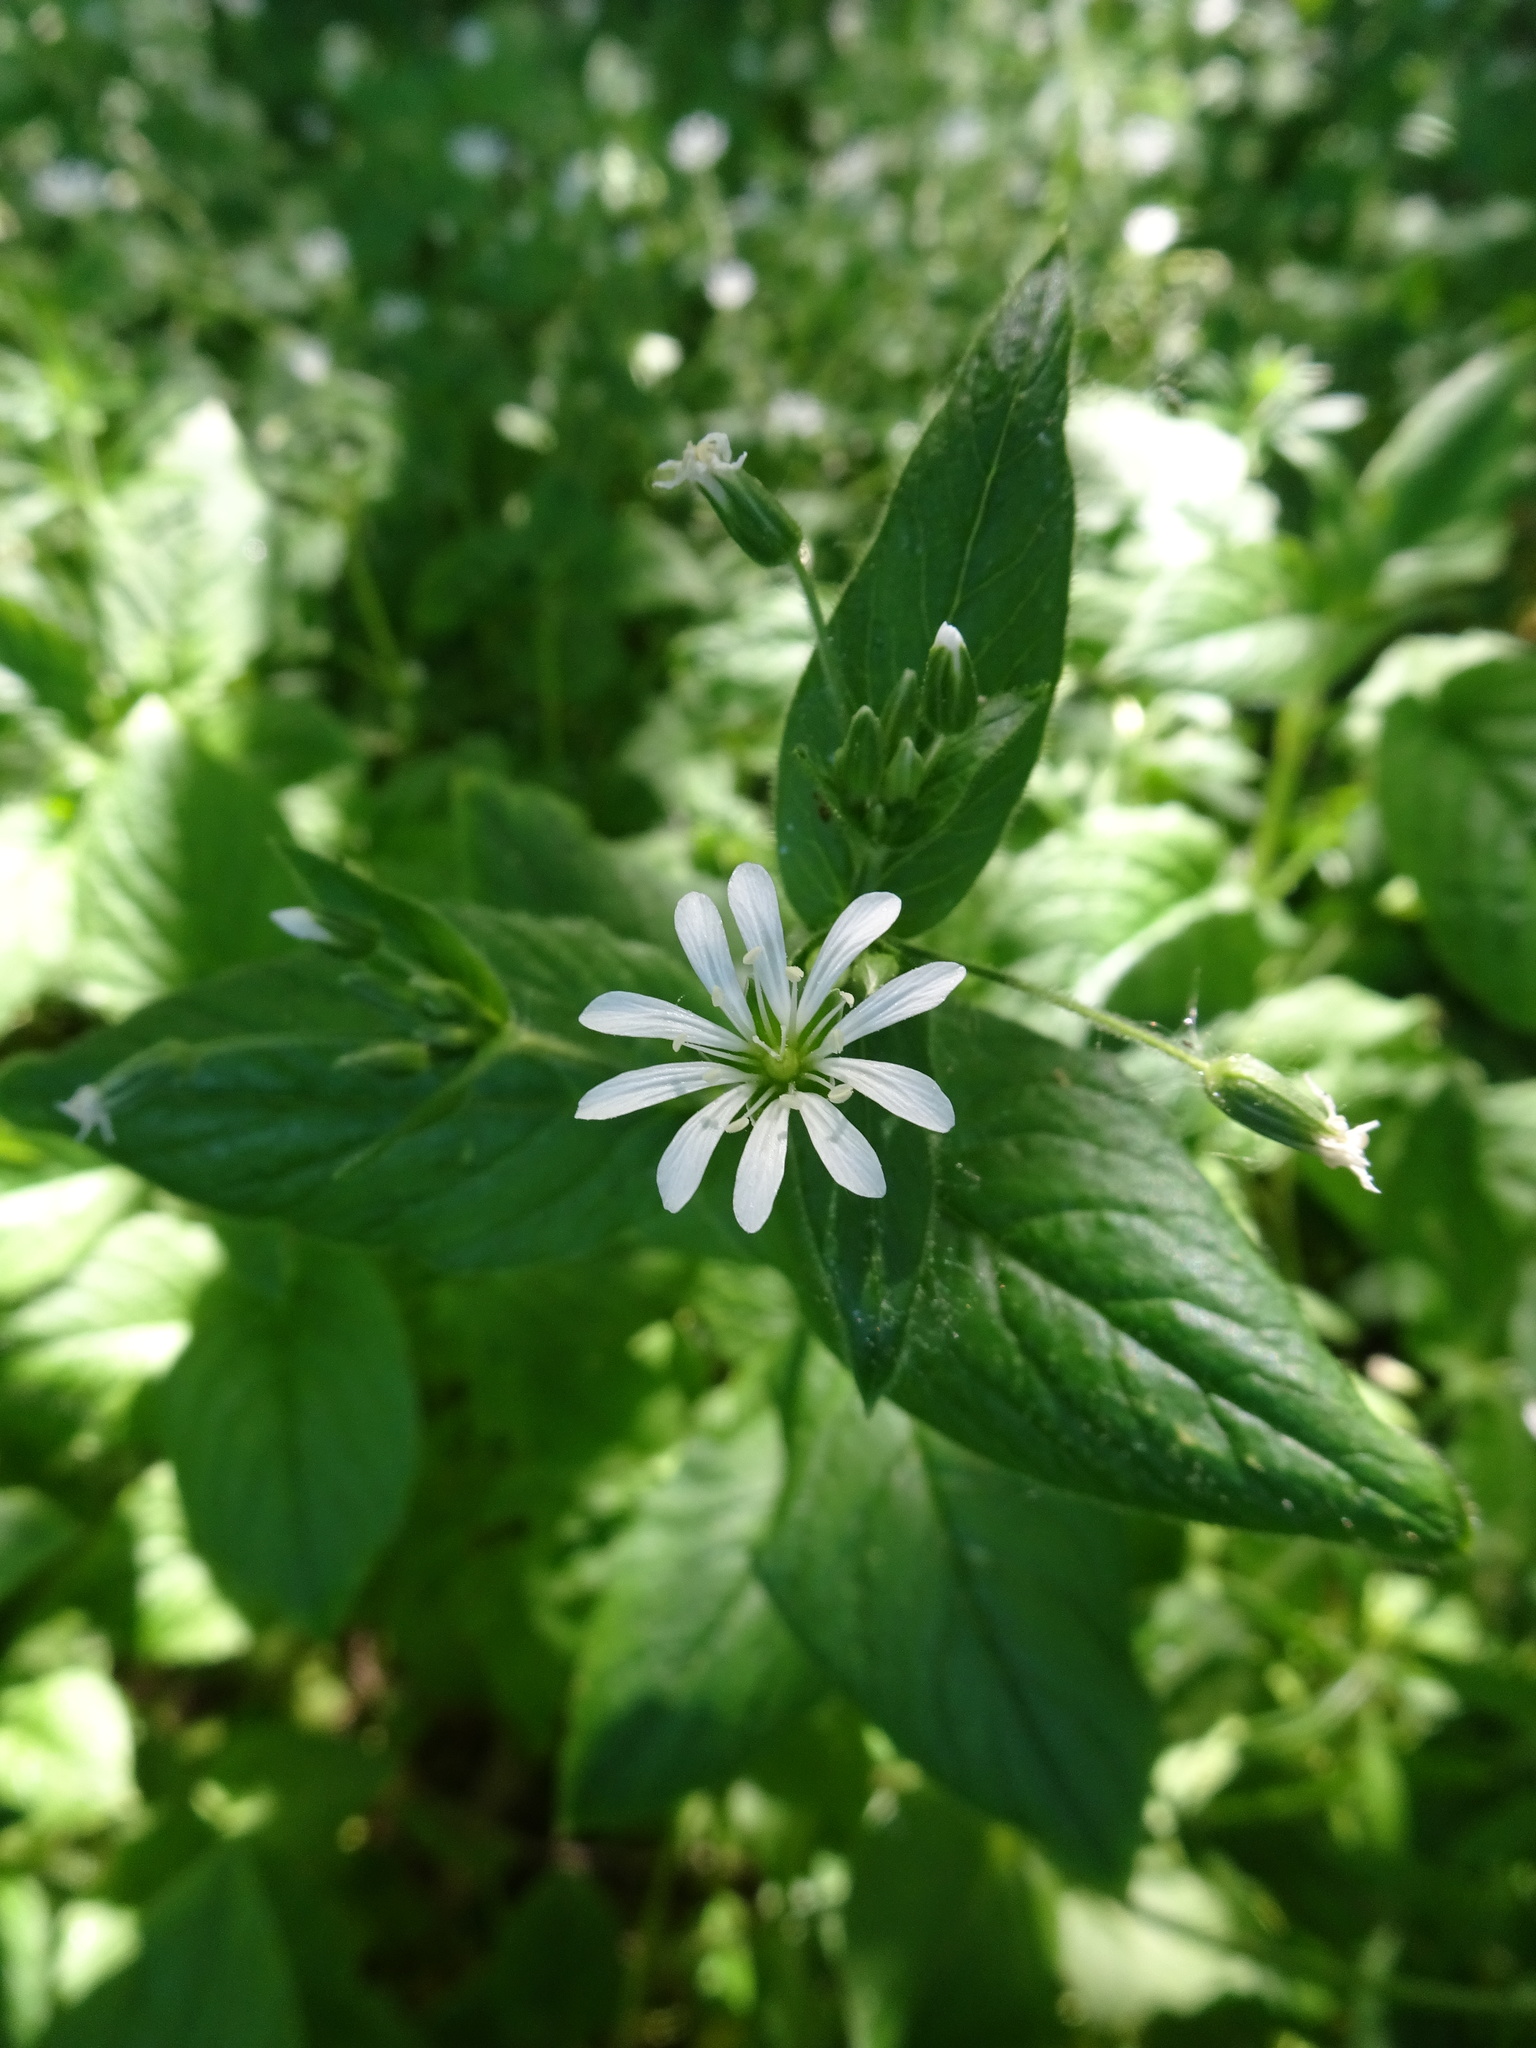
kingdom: Plantae
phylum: Tracheophyta
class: Magnoliopsida
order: Caryophyllales
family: Caryophyllaceae
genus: Stellaria
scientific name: Stellaria nemorum
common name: Wood stitchwort
